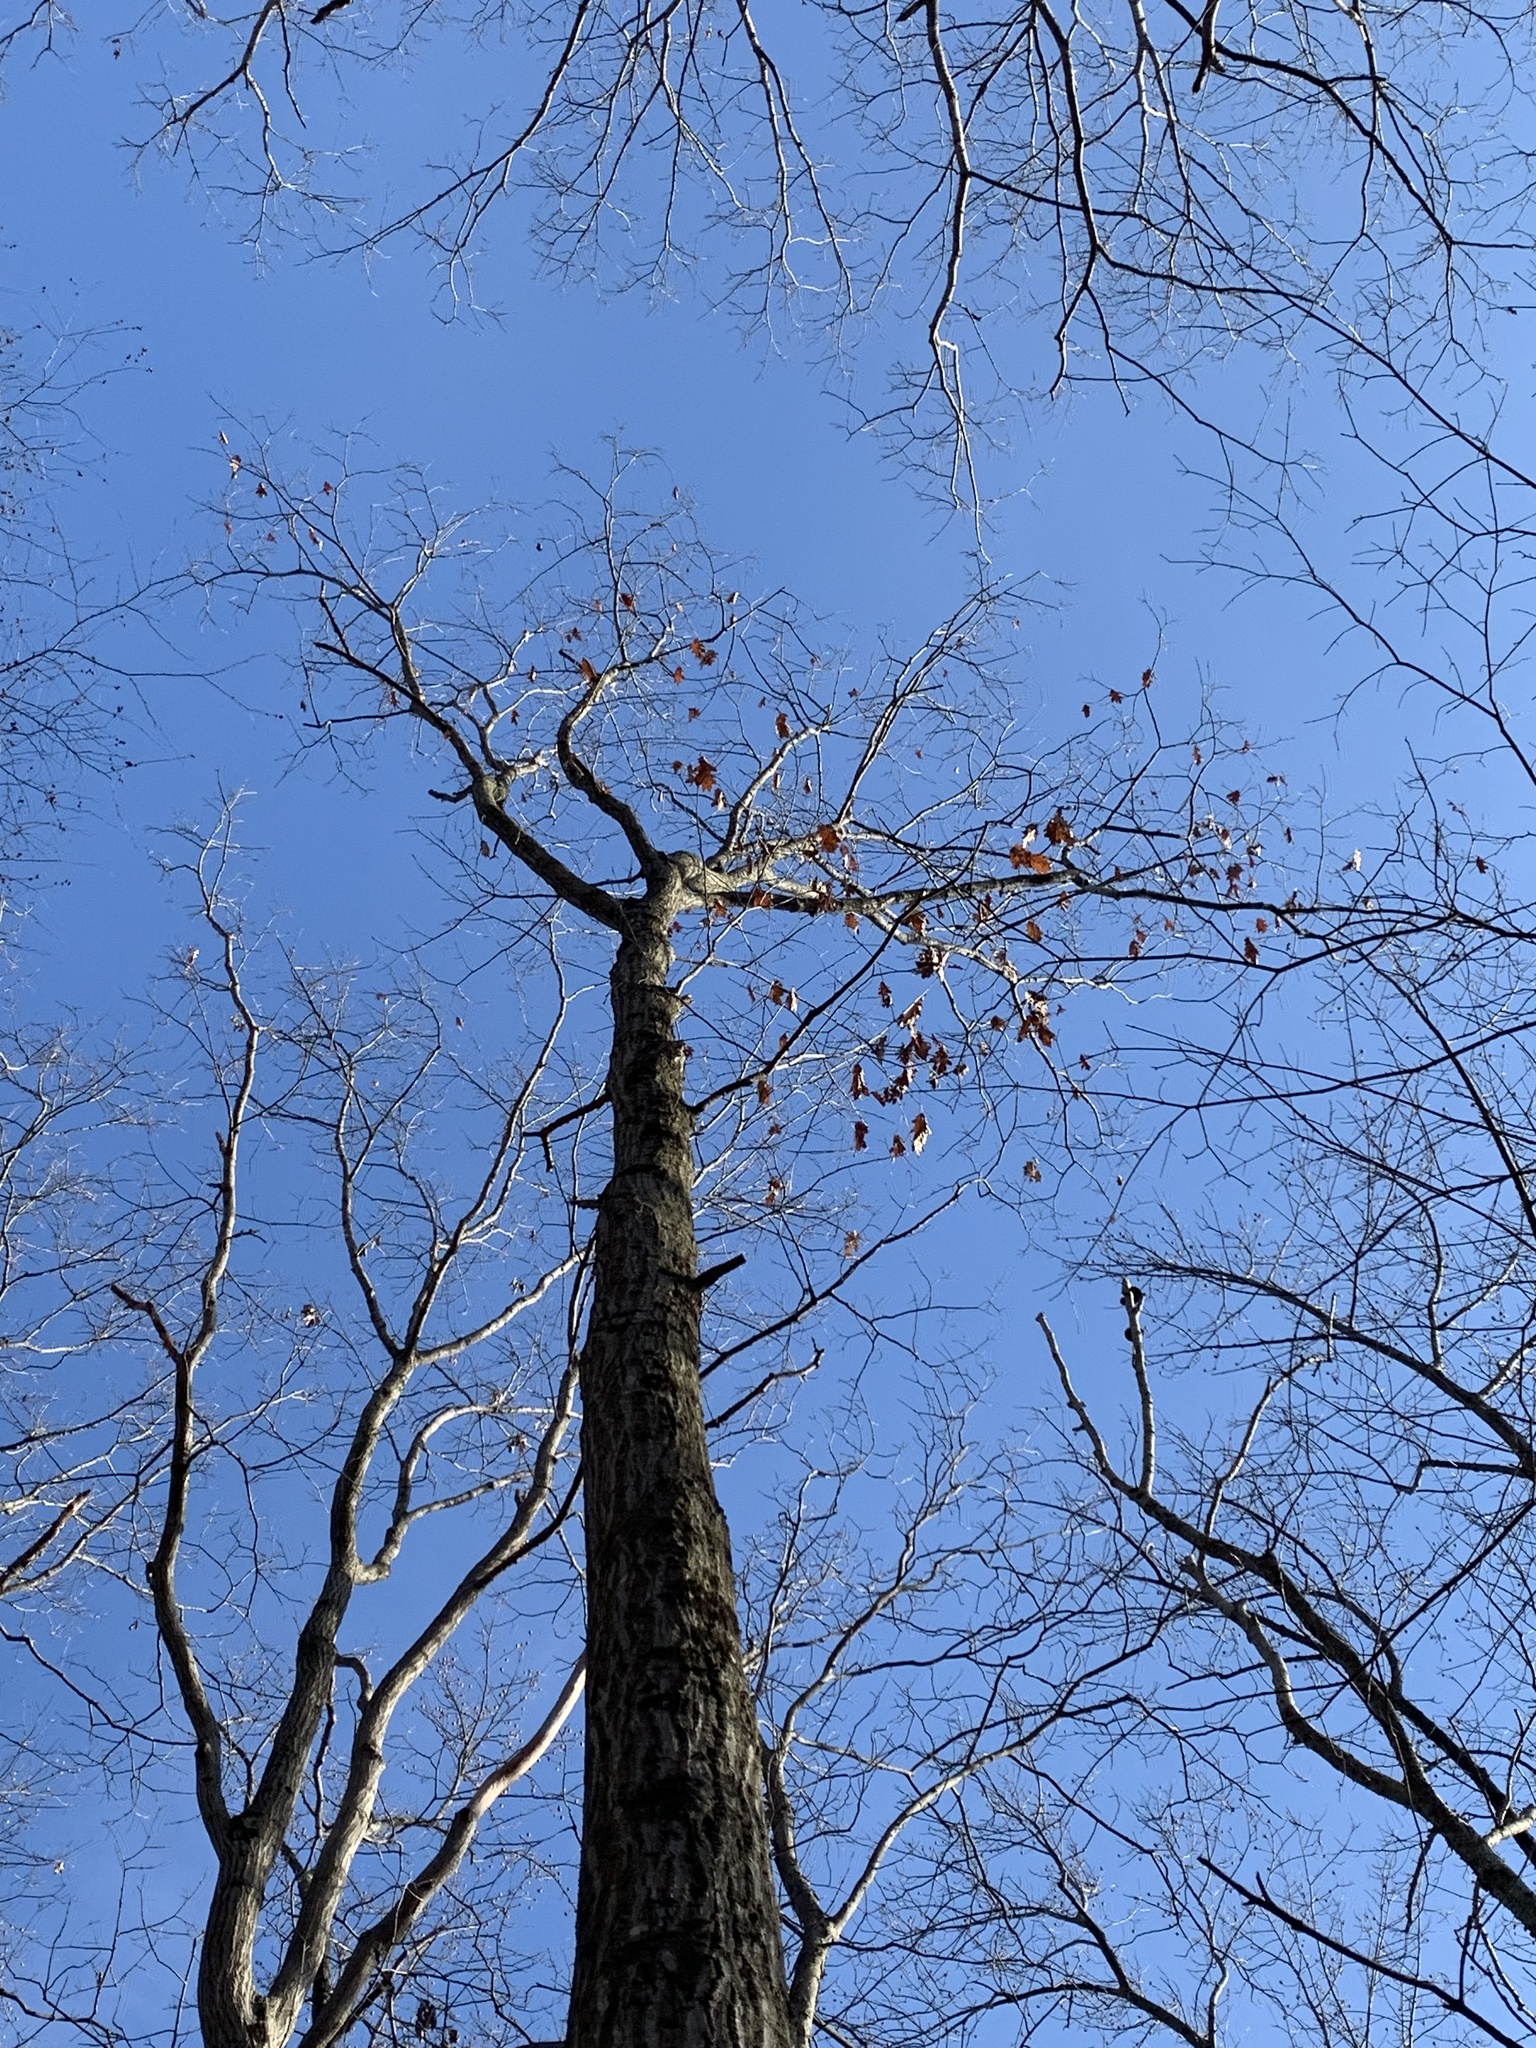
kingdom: Plantae
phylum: Tracheophyta
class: Magnoliopsida
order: Fagales
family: Fagaceae
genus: Quercus
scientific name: Quercus rubra
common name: Red oak
